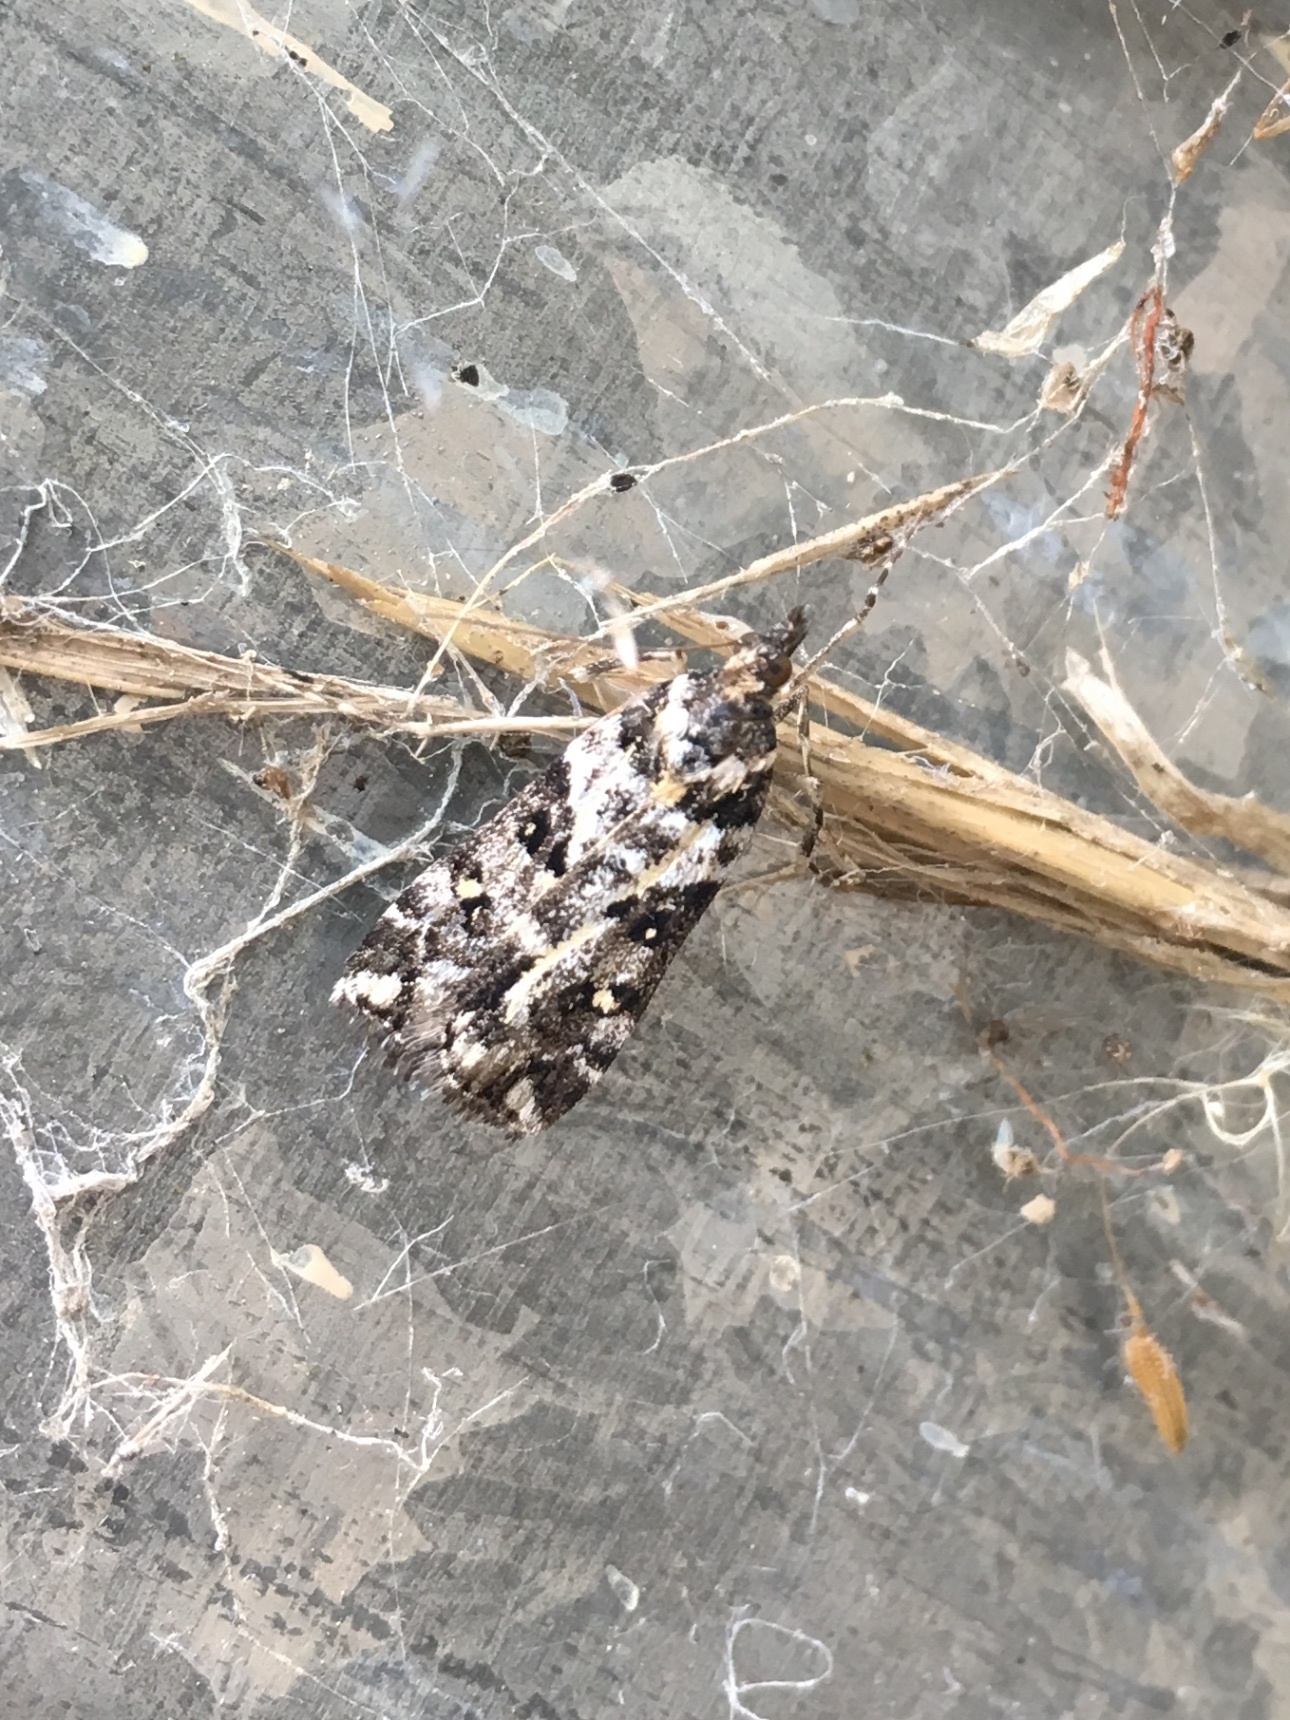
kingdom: Animalia
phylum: Arthropoda
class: Insecta
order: Lepidoptera
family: Crambidae
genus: Eudonia
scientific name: Eudonia diphtheralis
